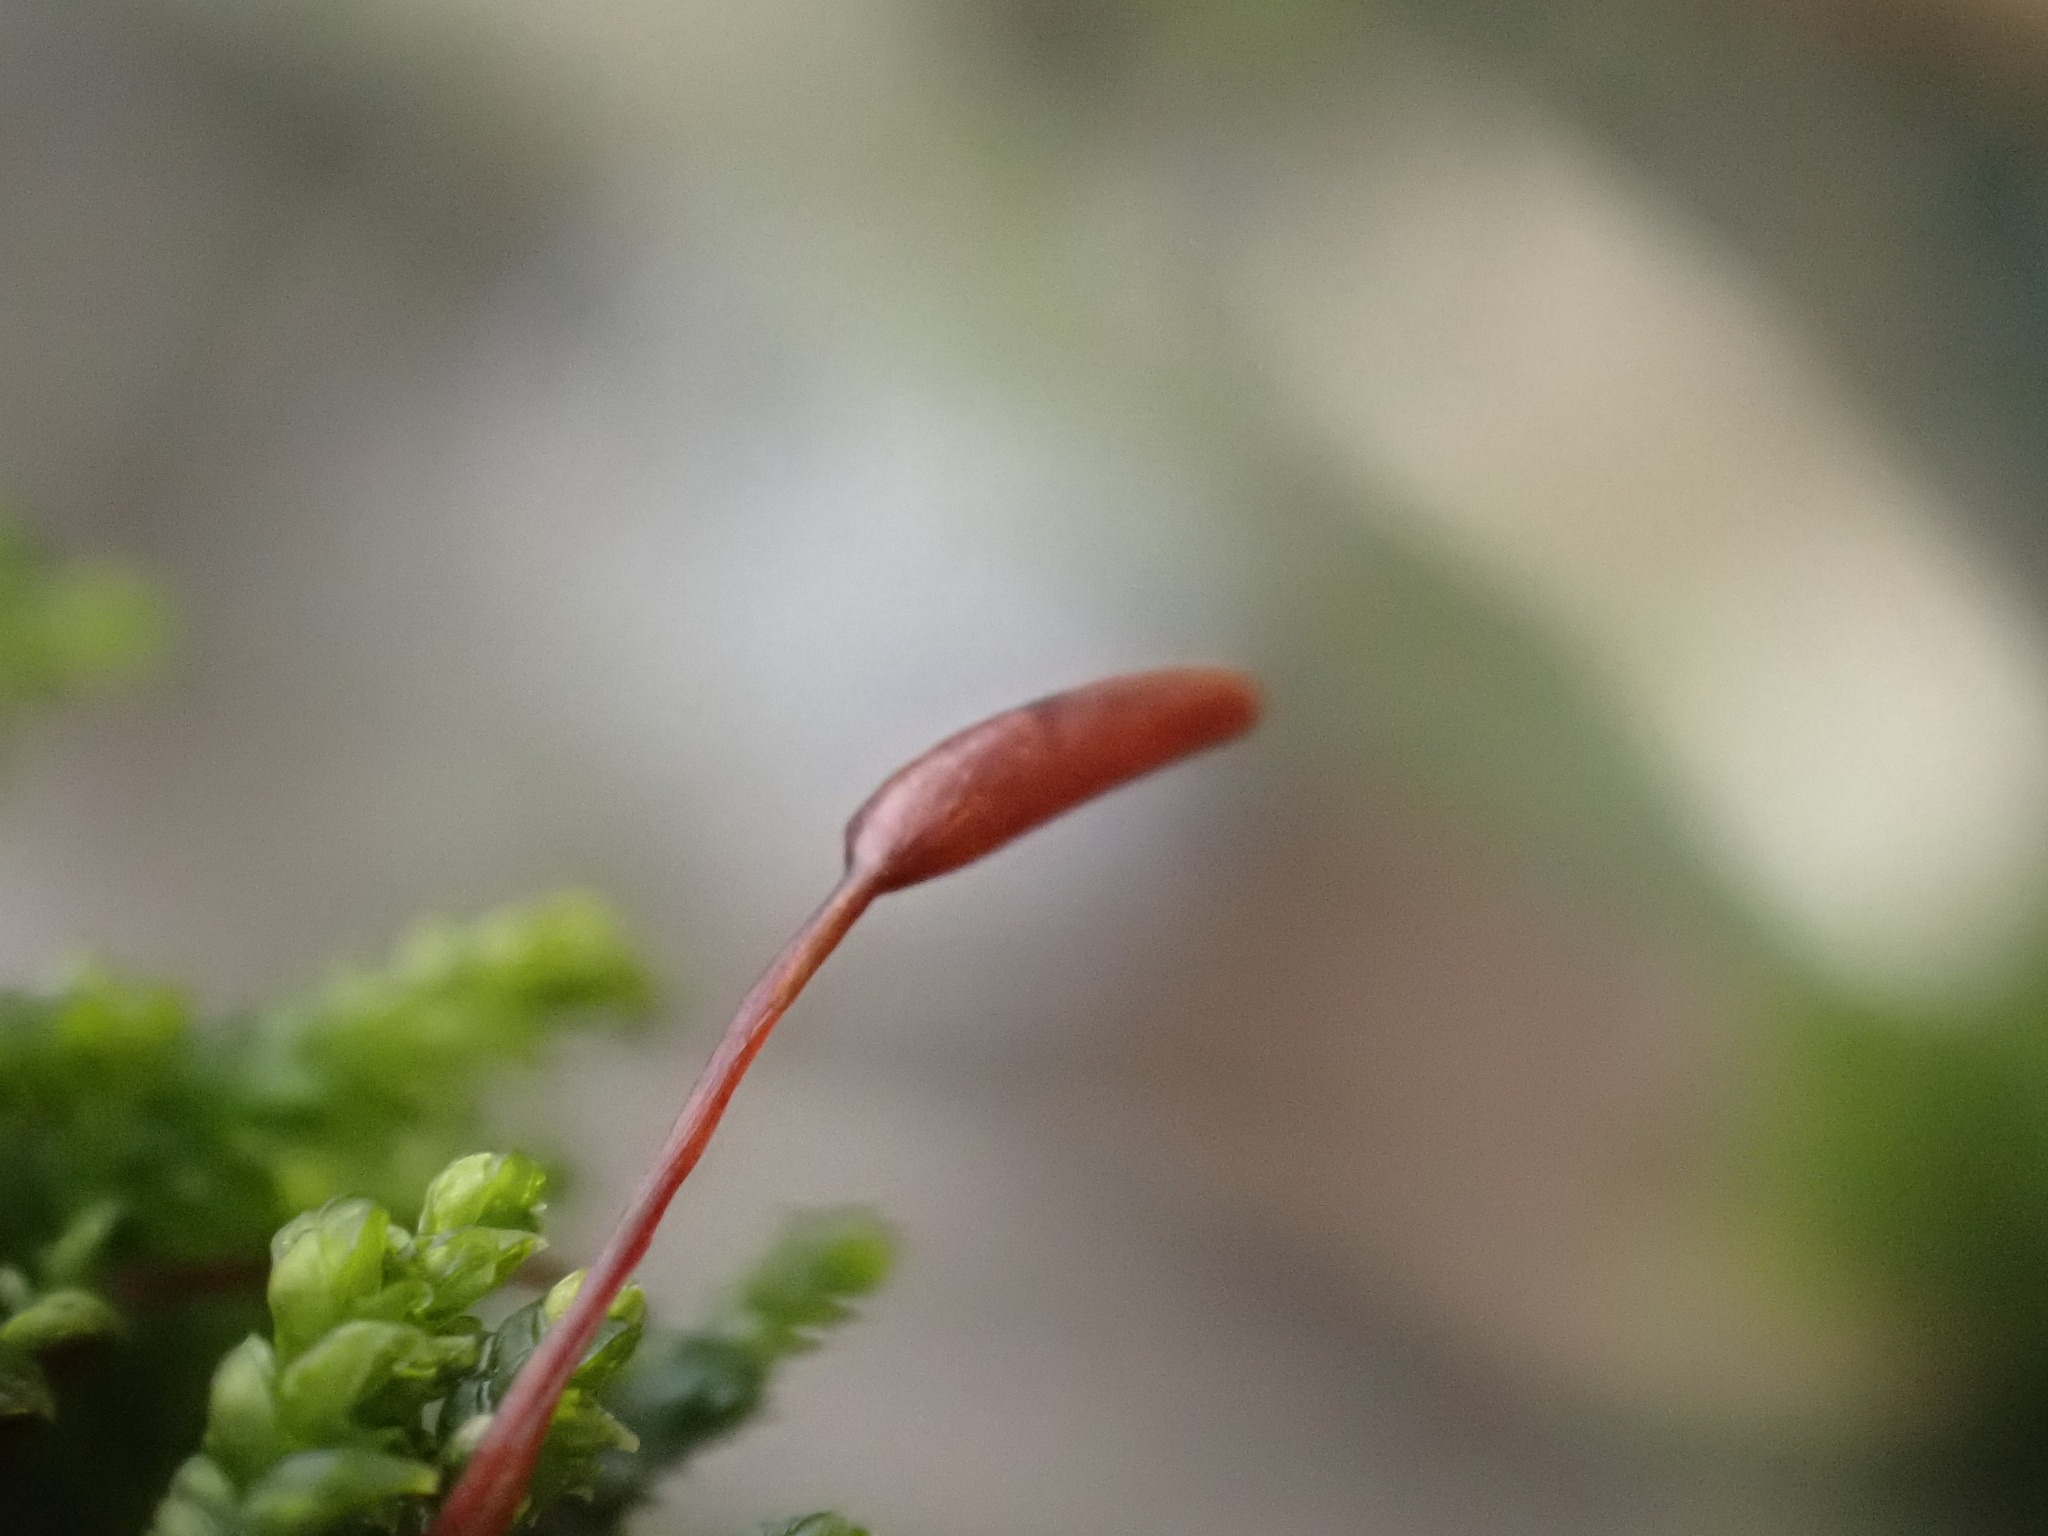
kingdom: Plantae
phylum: Bryophyta
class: Bryopsida
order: Hypnales
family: Leskeaceae
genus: Leskea
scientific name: Leskea polycarpa
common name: Many-fruited leske's moss
